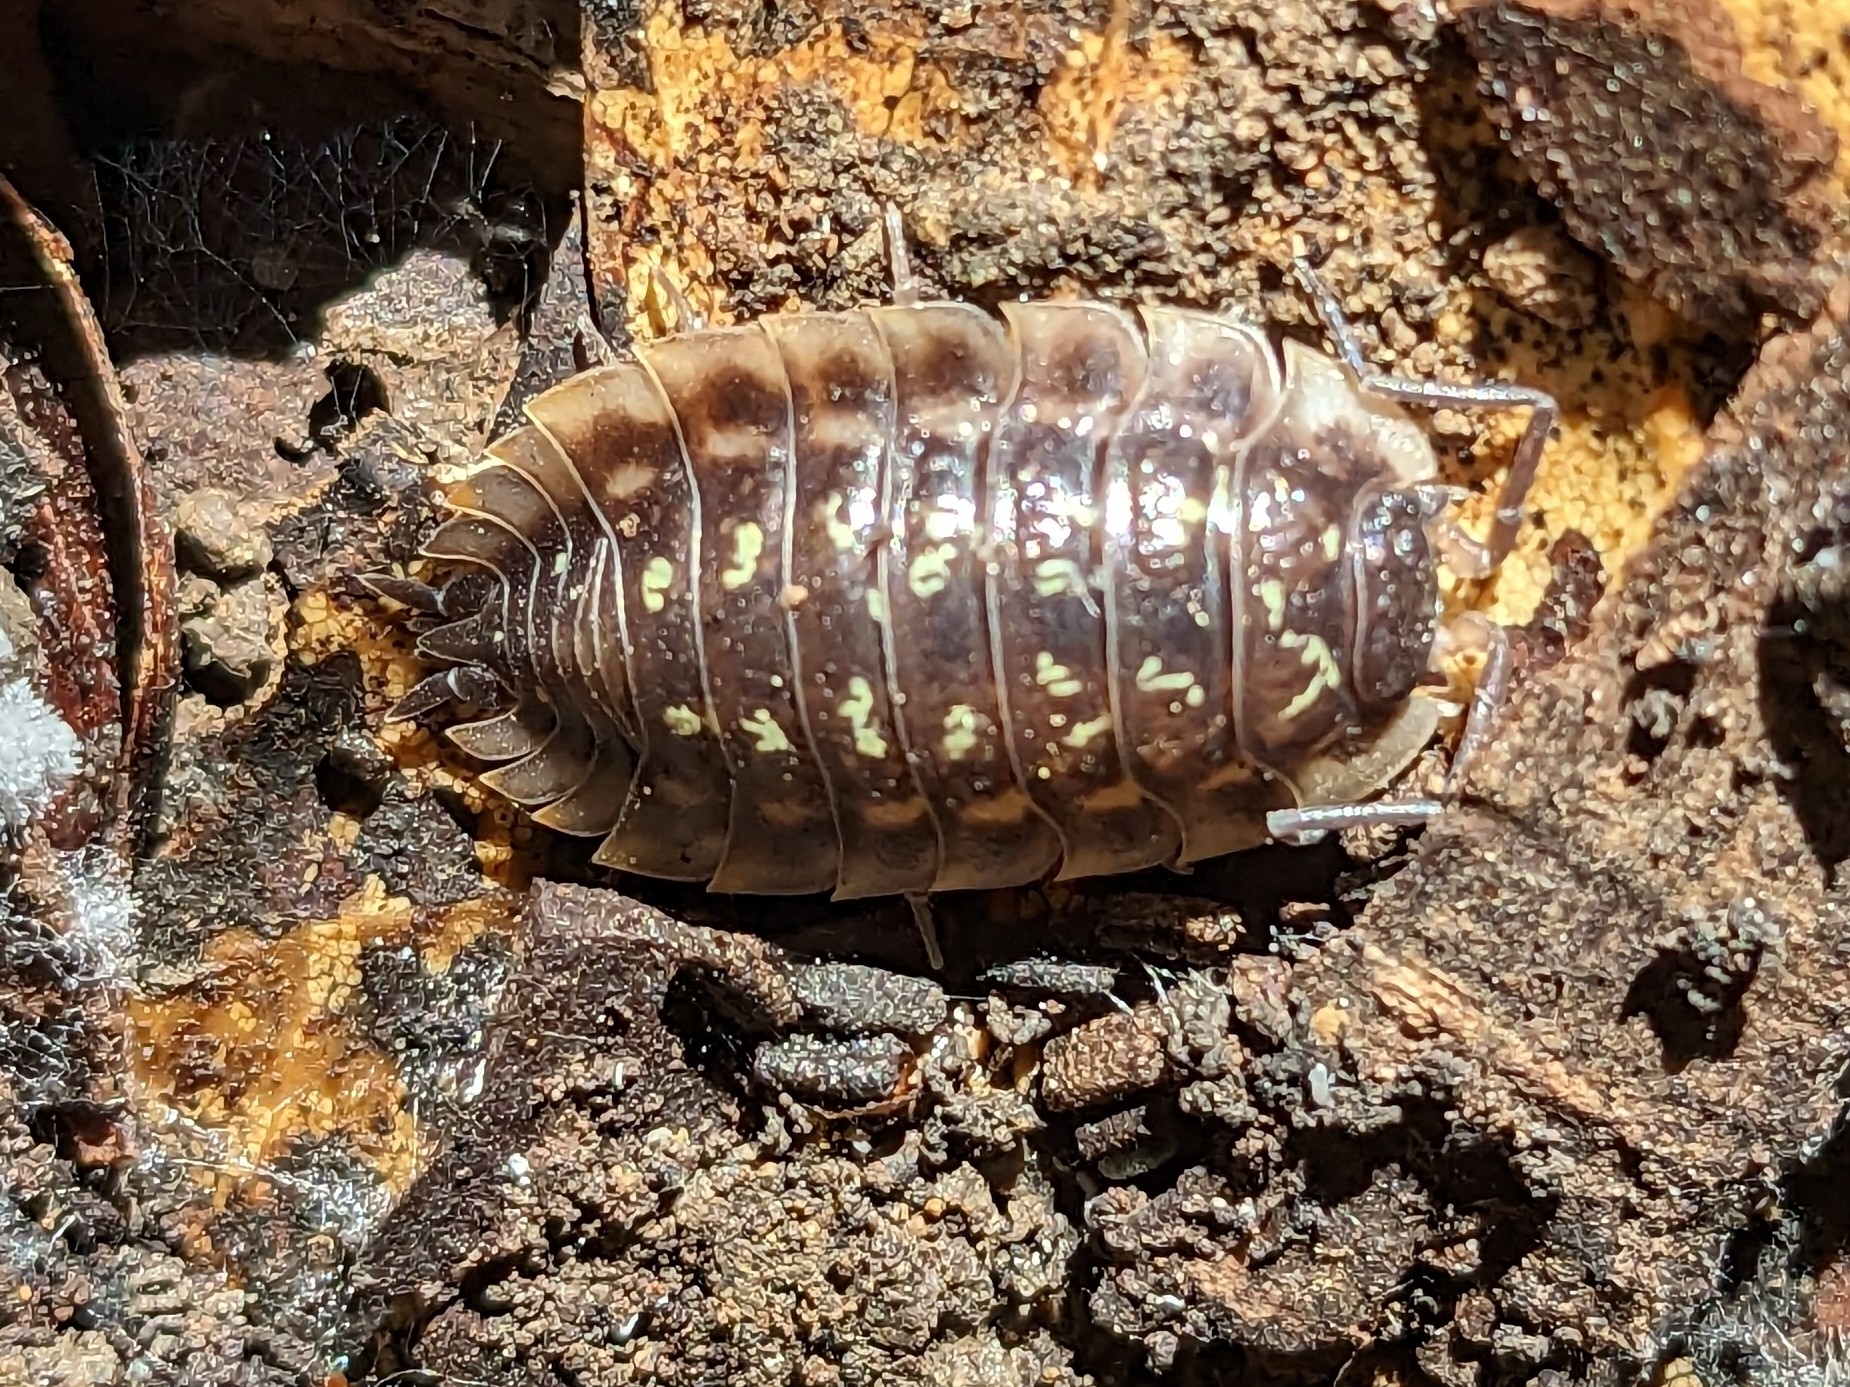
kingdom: Animalia
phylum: Arthropoda
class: Malacostraca
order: Isopoda
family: Oniscidae
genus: Oniscus
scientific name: Oniscus asellus
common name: Common shiny woodlouse
